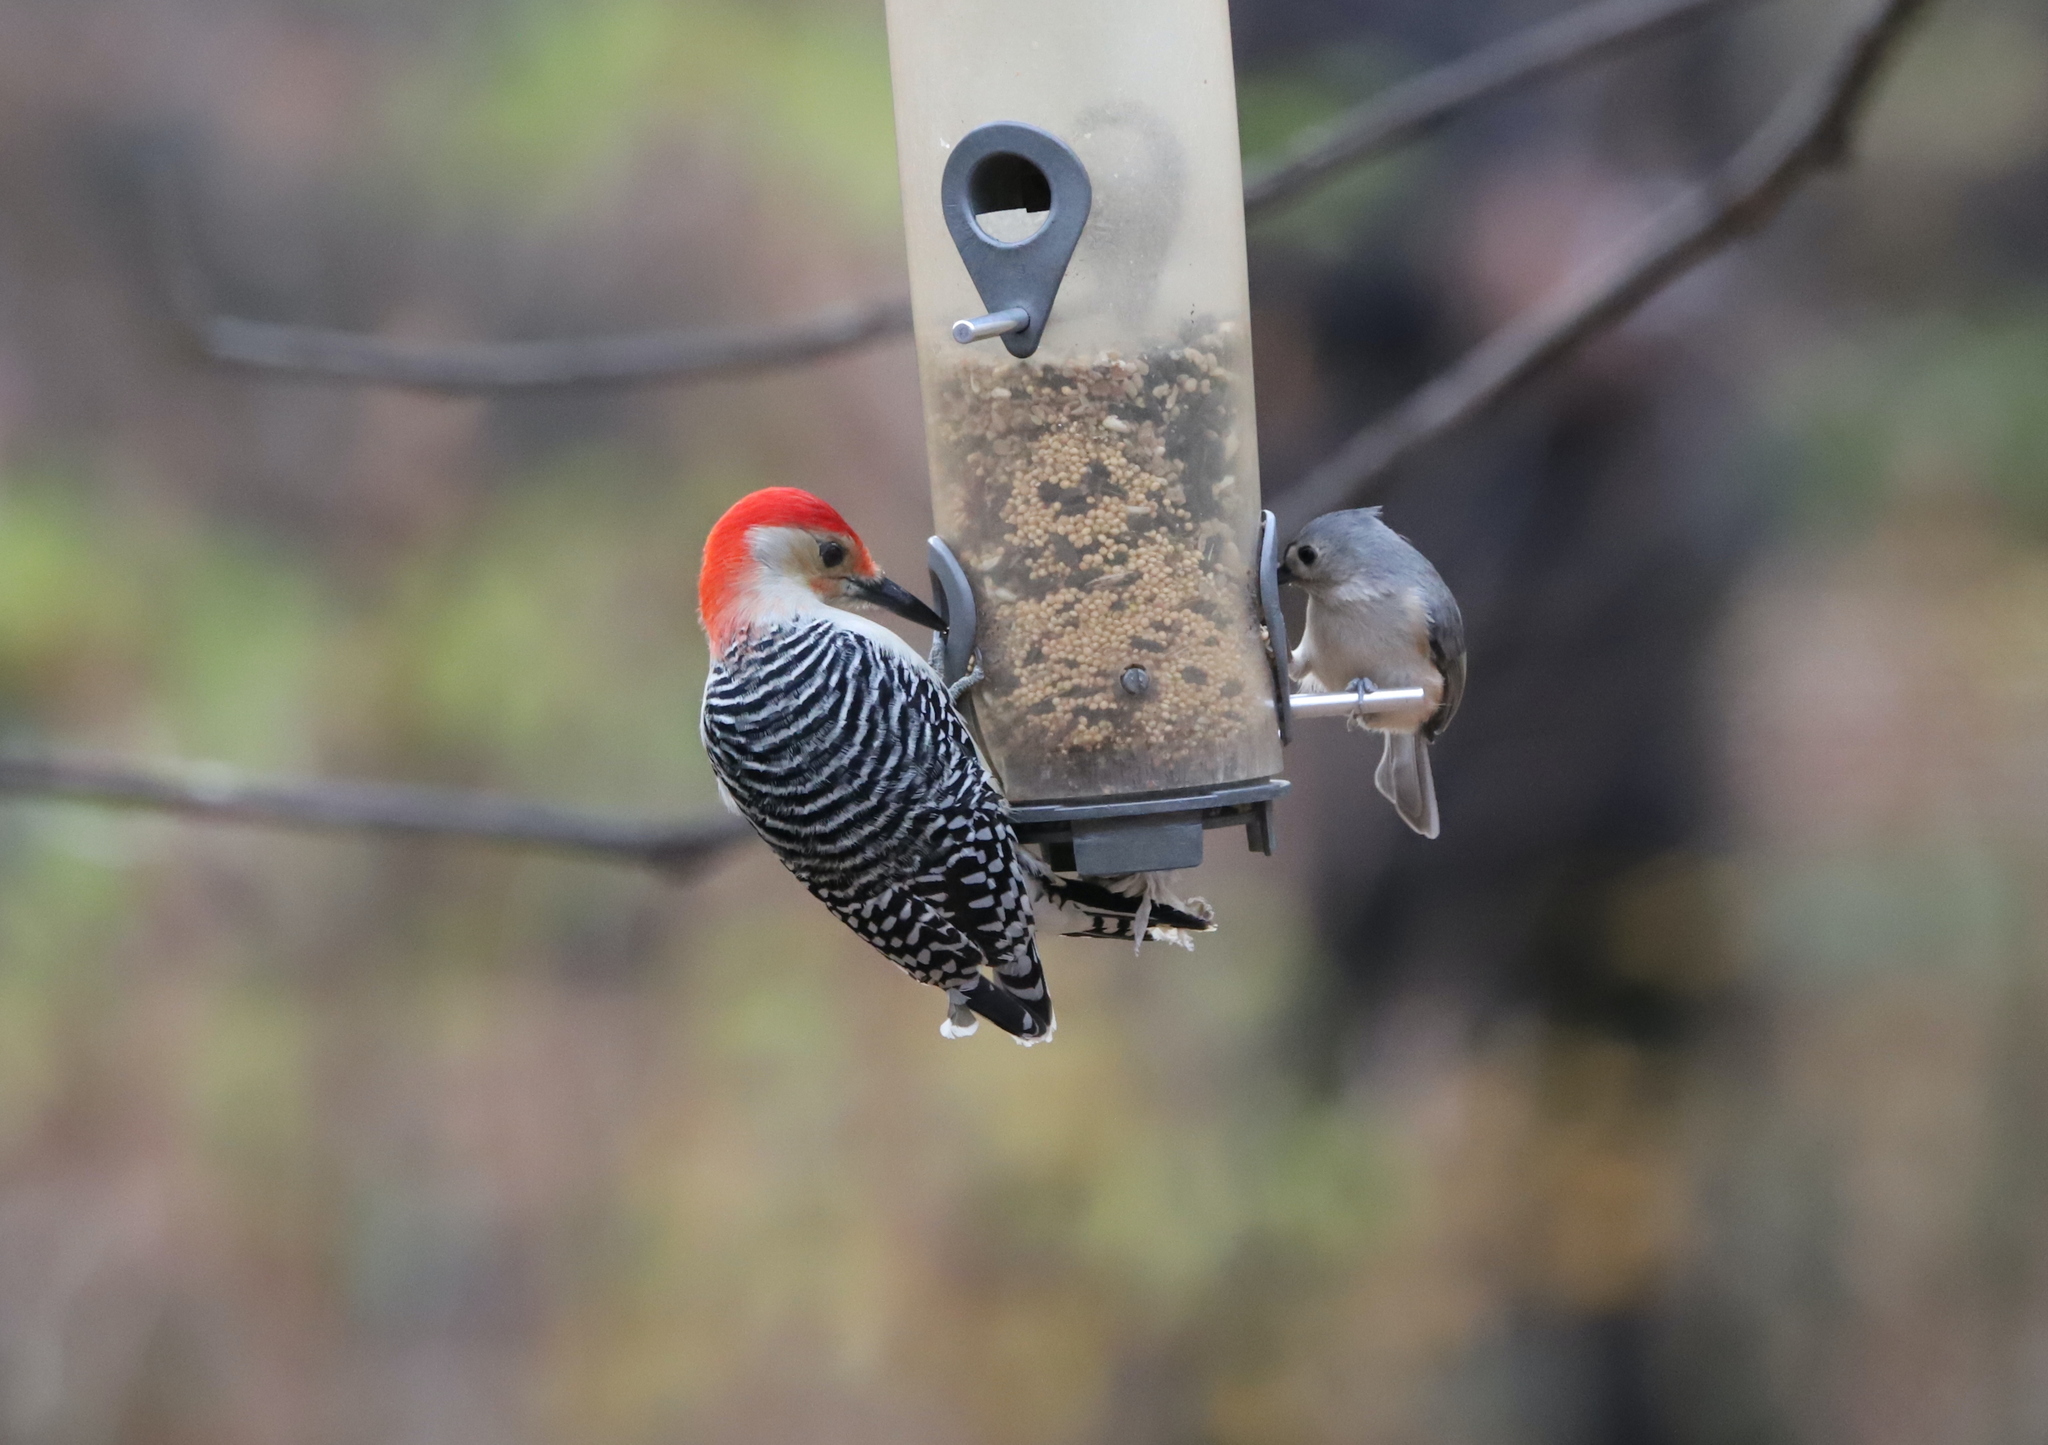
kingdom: Animalia
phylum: Chordata
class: Aves
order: Piciformes
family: Picidae
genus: Melanerpes
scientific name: Melanerpes carolinus
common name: Red-bellied woodpecker
